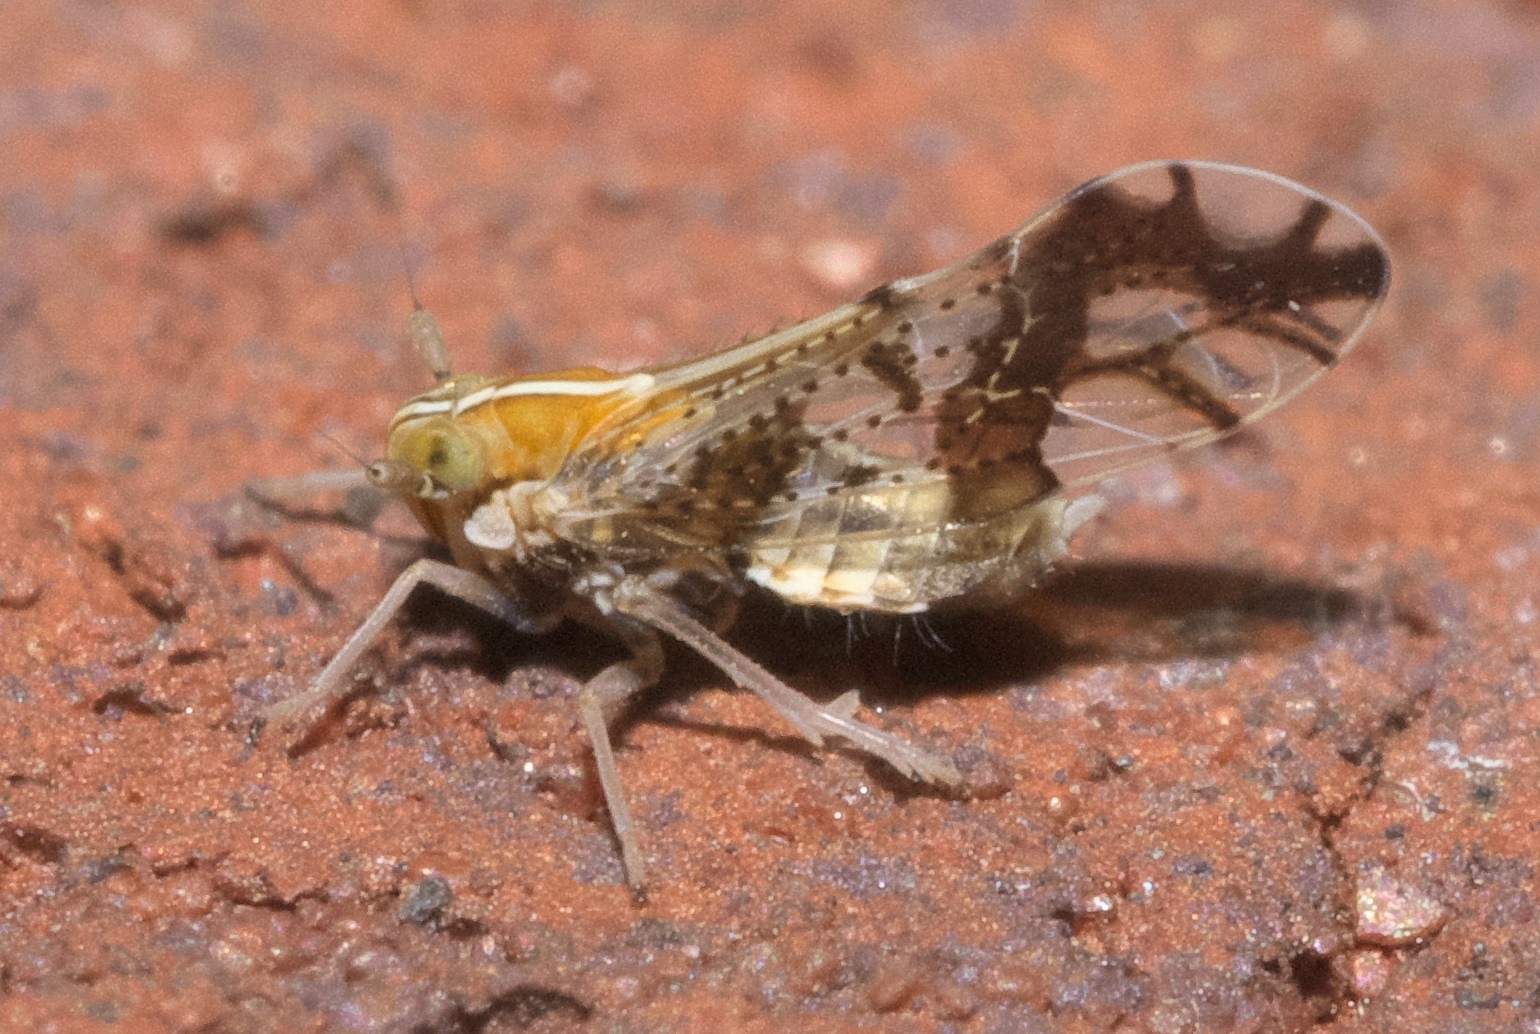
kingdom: Animalia
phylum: Arthropoda
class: Insecta
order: Hemiptera
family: Delphacidae
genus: Liburniella
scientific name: Liburniella ornata
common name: Ornate planthopper
